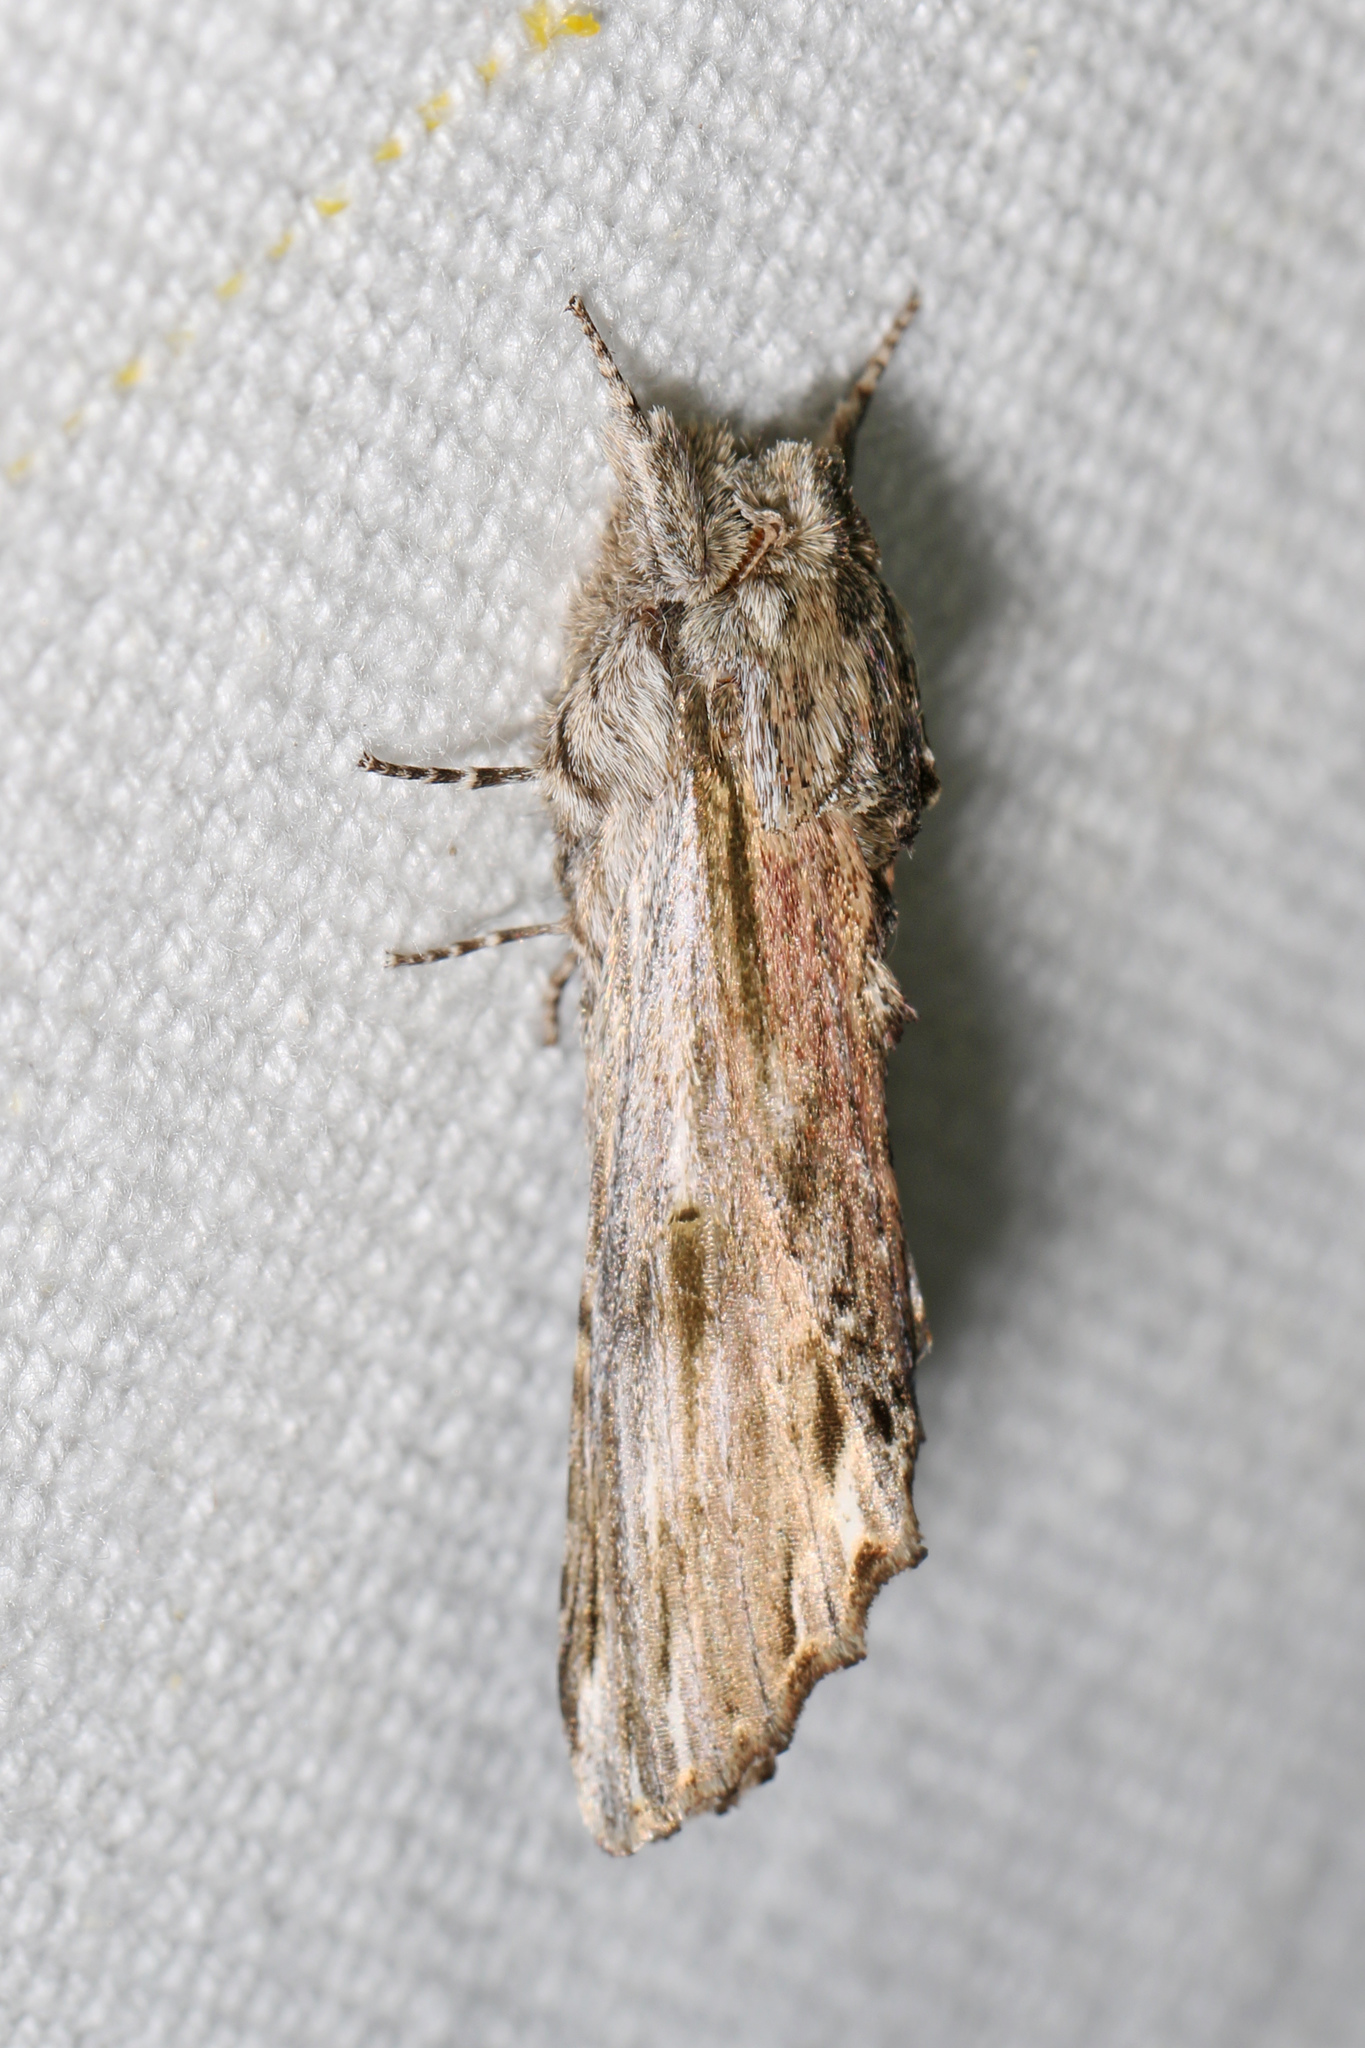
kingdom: Animalia
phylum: Arthropoda
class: Insecta
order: Lepidoptera
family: Notodontidae
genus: Oligocentria
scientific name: Oligocentria Ianassa lignicolor
